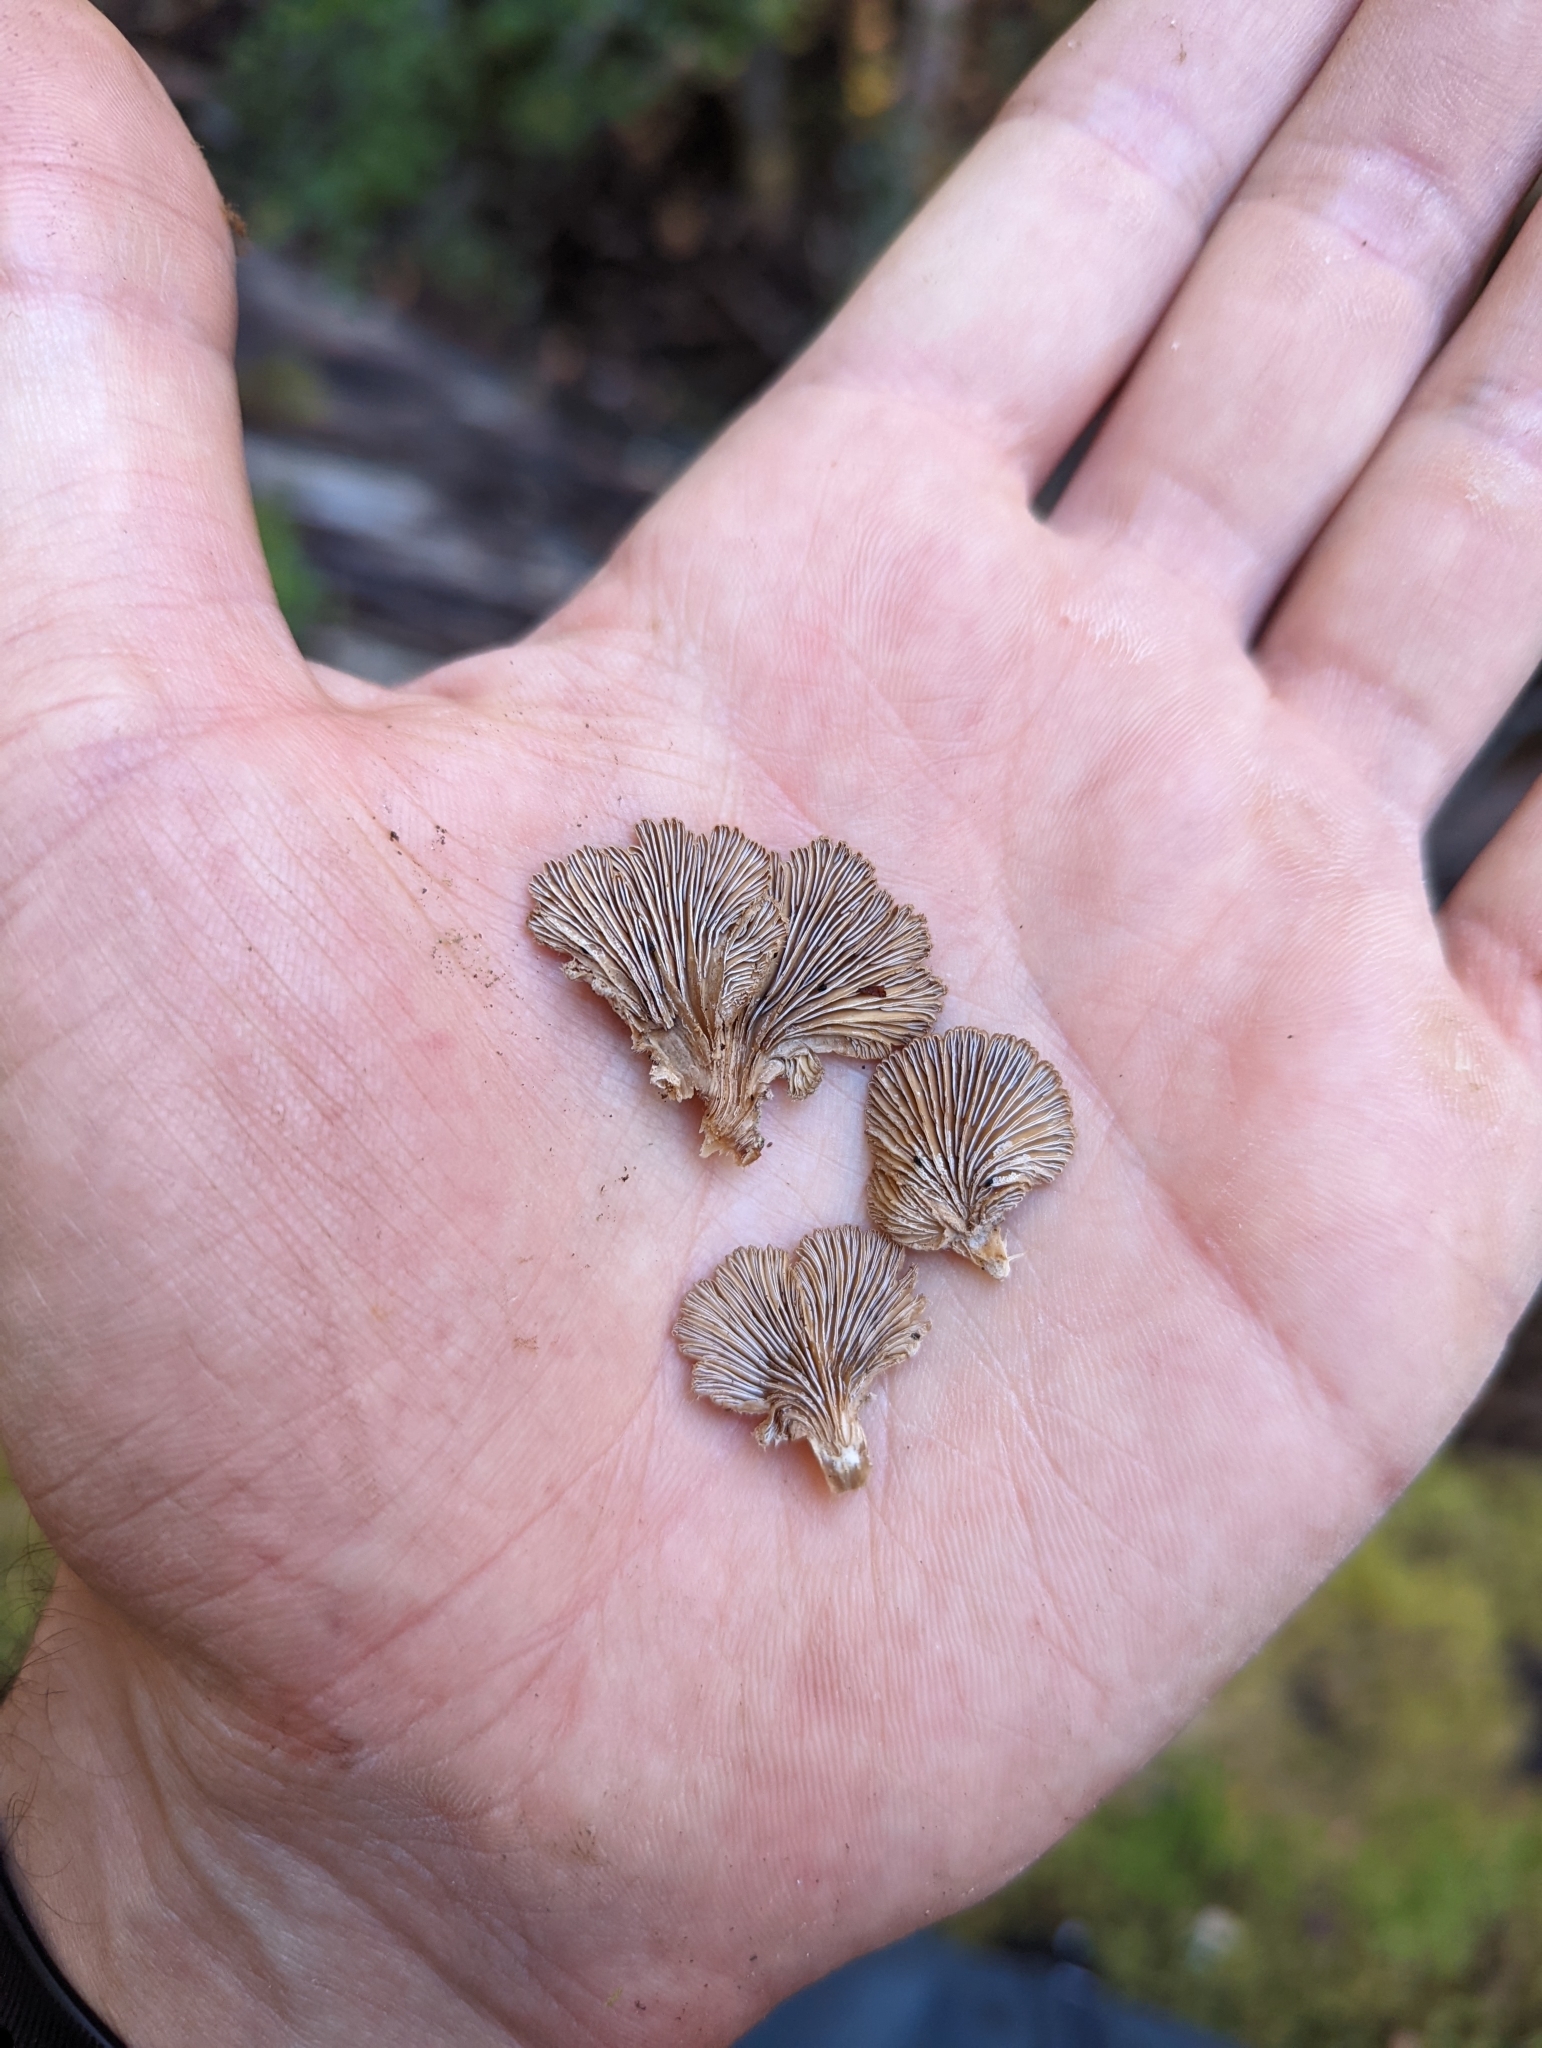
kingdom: Fungi
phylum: Basidiomycota
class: Agaricomycetes
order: Agaricales
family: Schizophyllaceae
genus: Schizophyllum
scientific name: Schizophyllum commune
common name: Common porecrust
